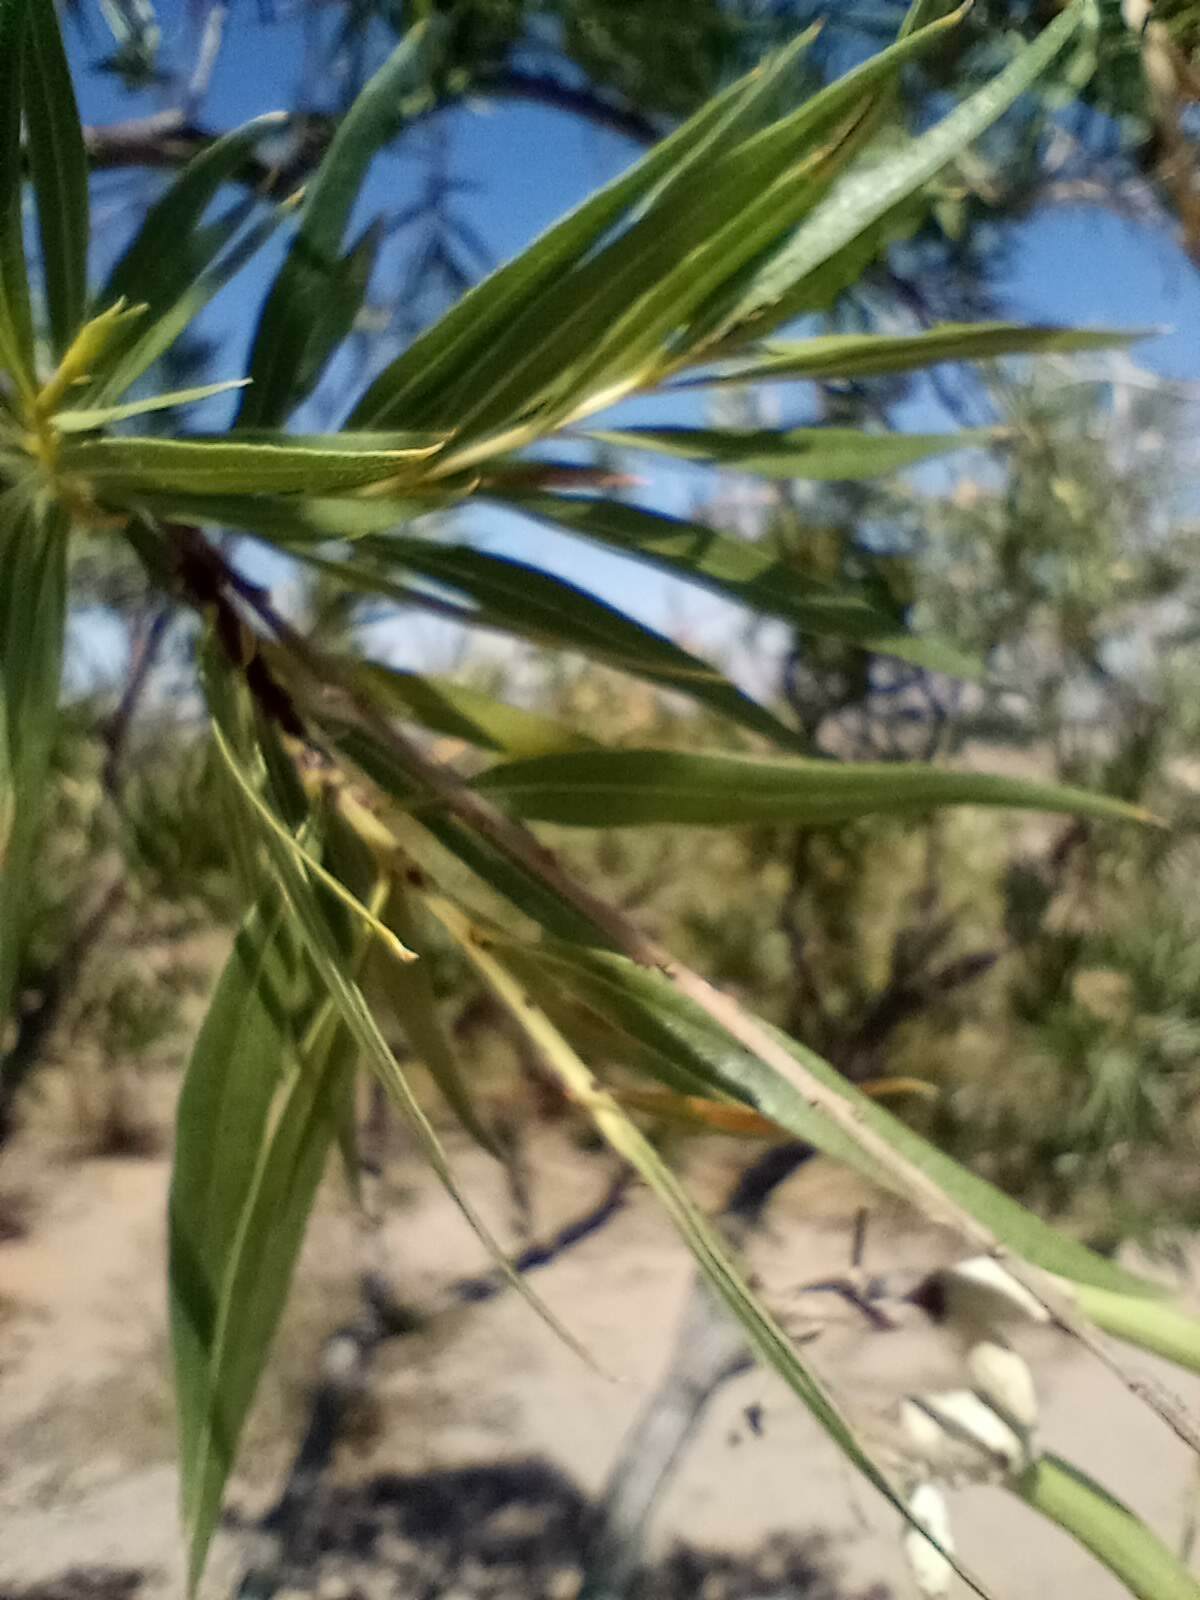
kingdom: Plantae
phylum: Tracheophyta
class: Magnoliopsida
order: Lamiales
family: Bignoniaceae
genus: Chilopsis
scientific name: Chilopsis linearis
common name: Desert-willow
